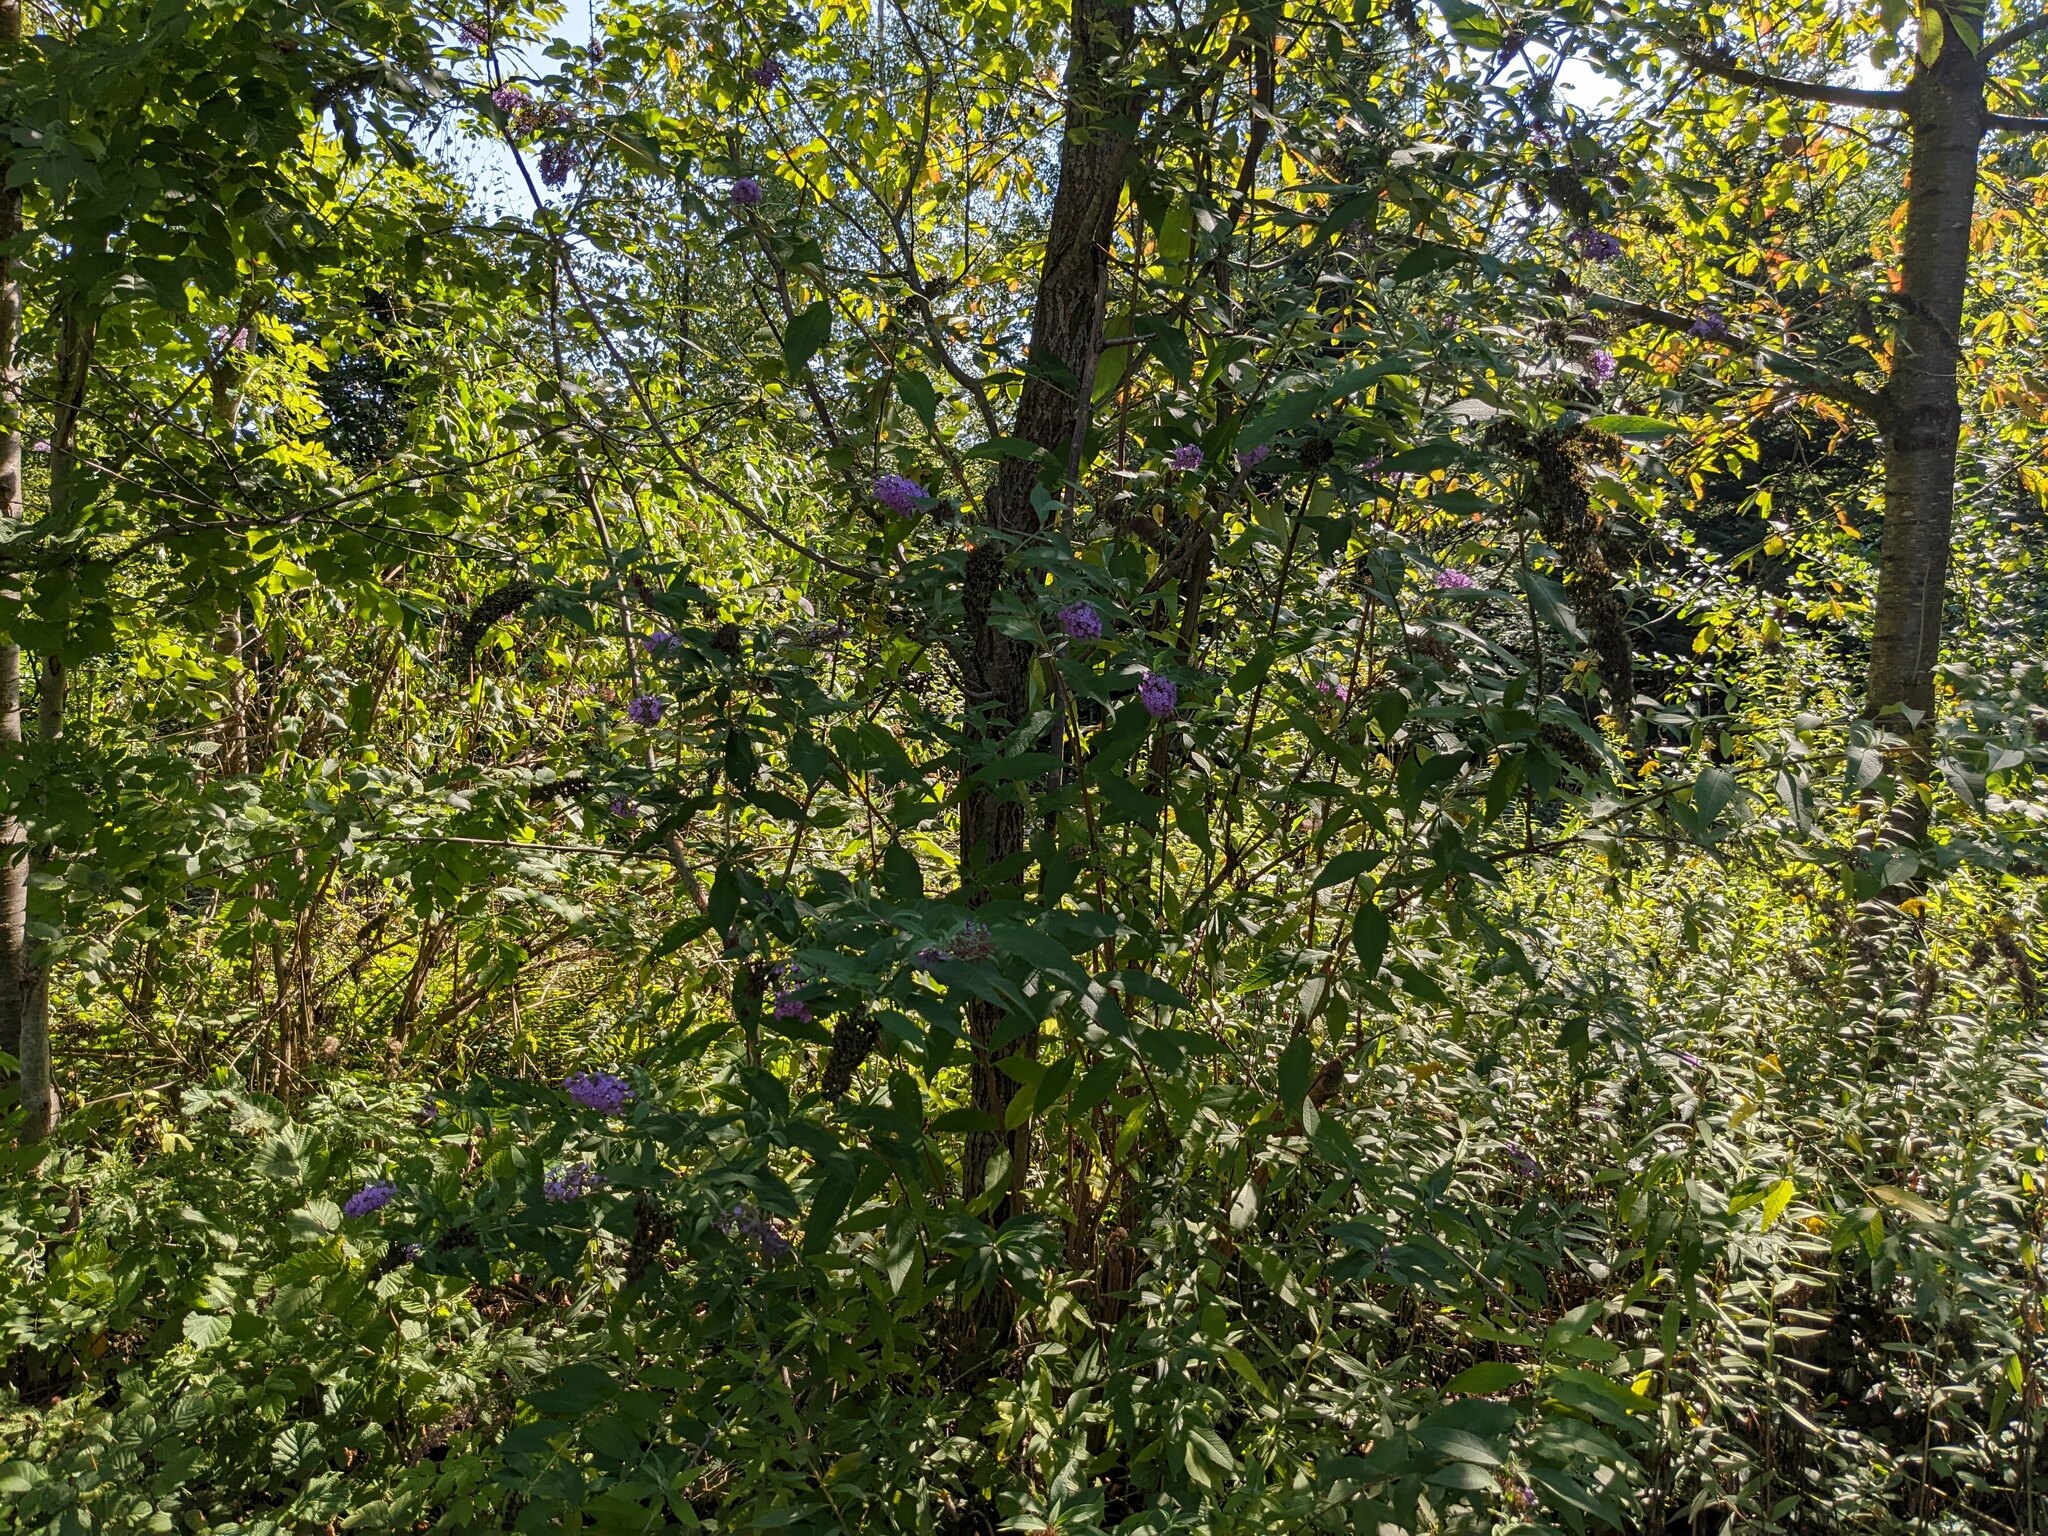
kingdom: Plantae
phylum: Tracheophyta
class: Magnoliopsida
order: Lamiales
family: Scrophulariaceae
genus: Buddleja
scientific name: Buddleja davidii
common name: Butterfly-bush
